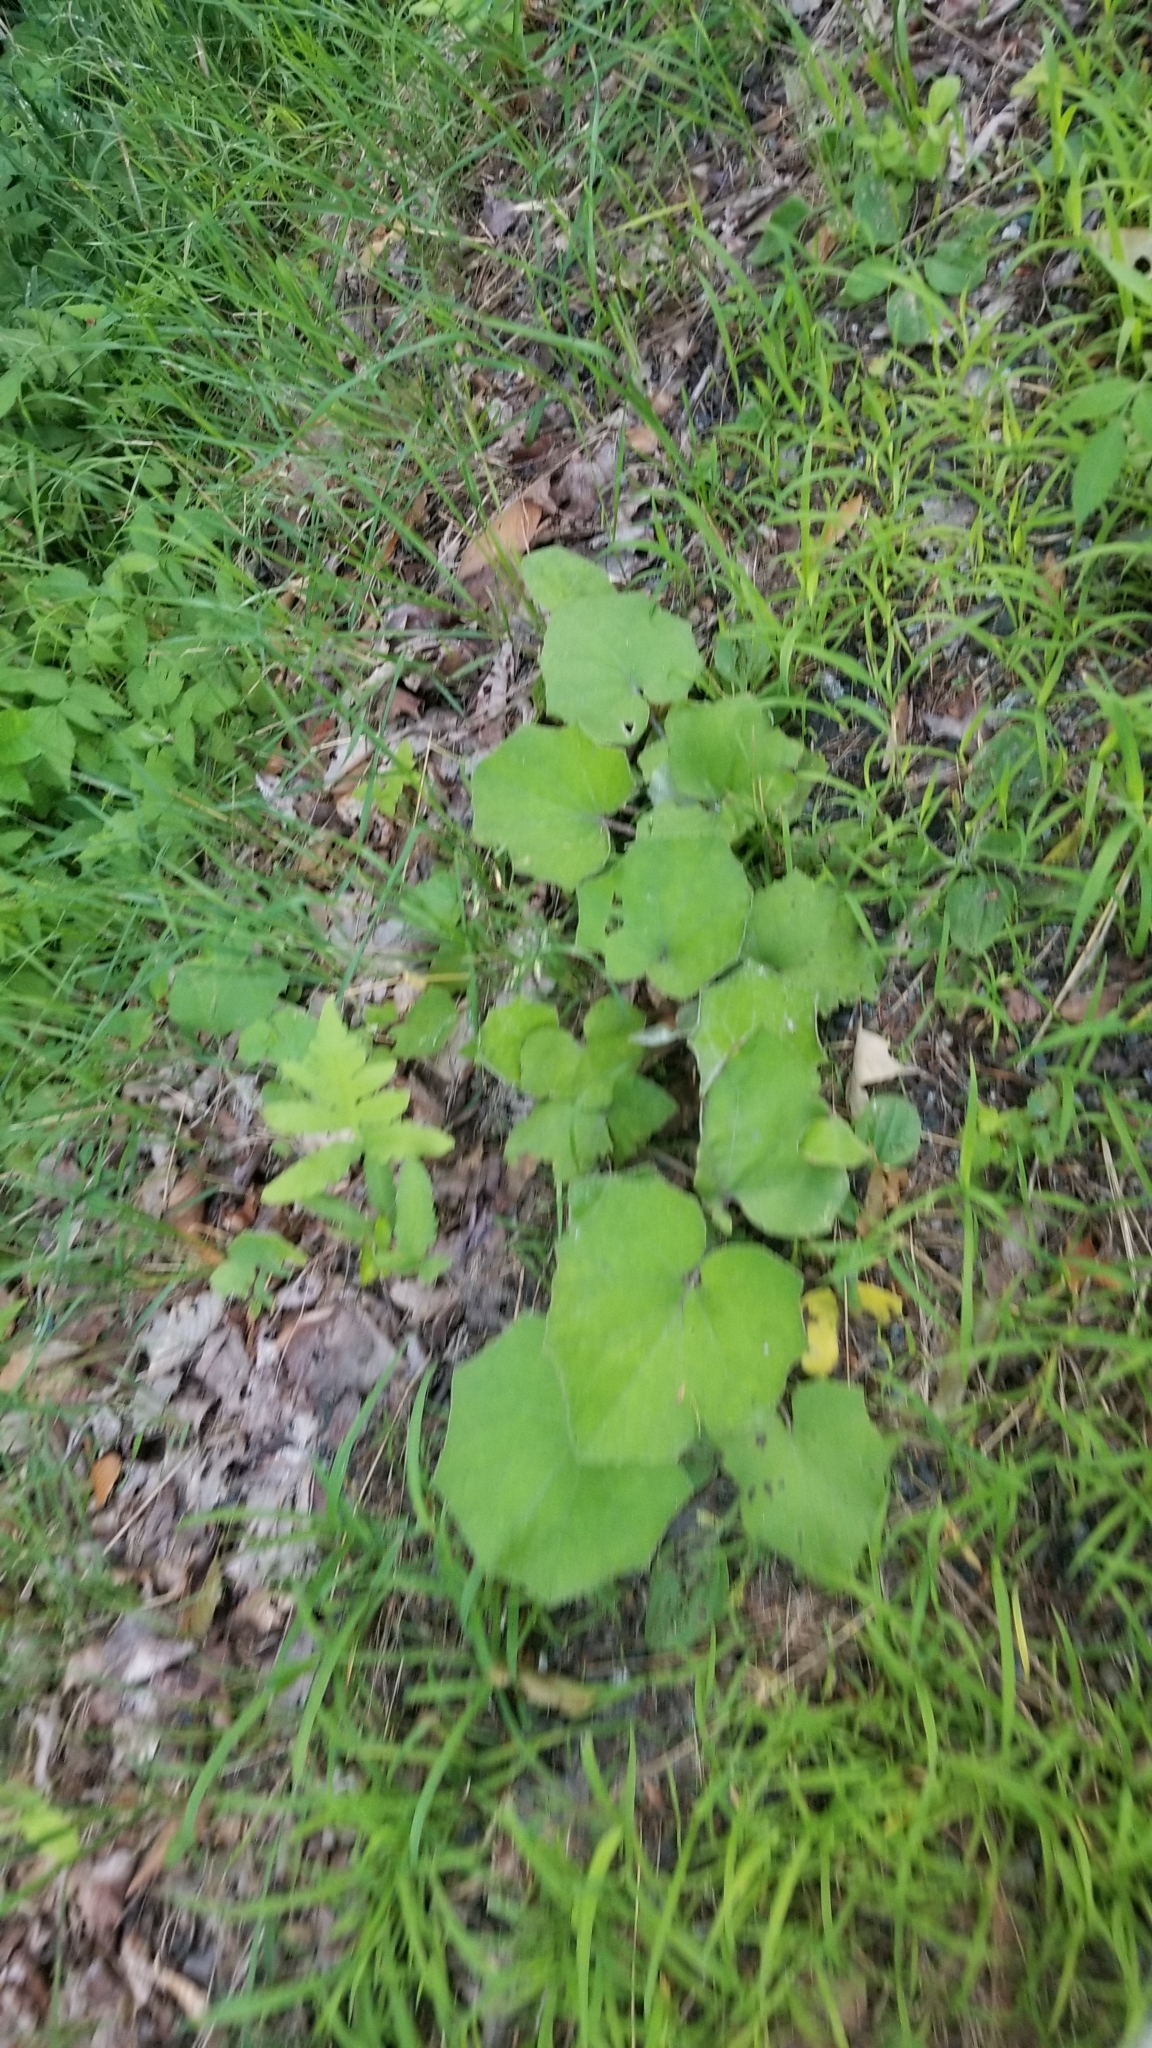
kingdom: Plantae
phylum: Tracheophyta
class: Magnoliopsida
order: Asterales
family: Asteraceae
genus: Tussilago
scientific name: Tussilago farfara
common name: Coltsfoot
